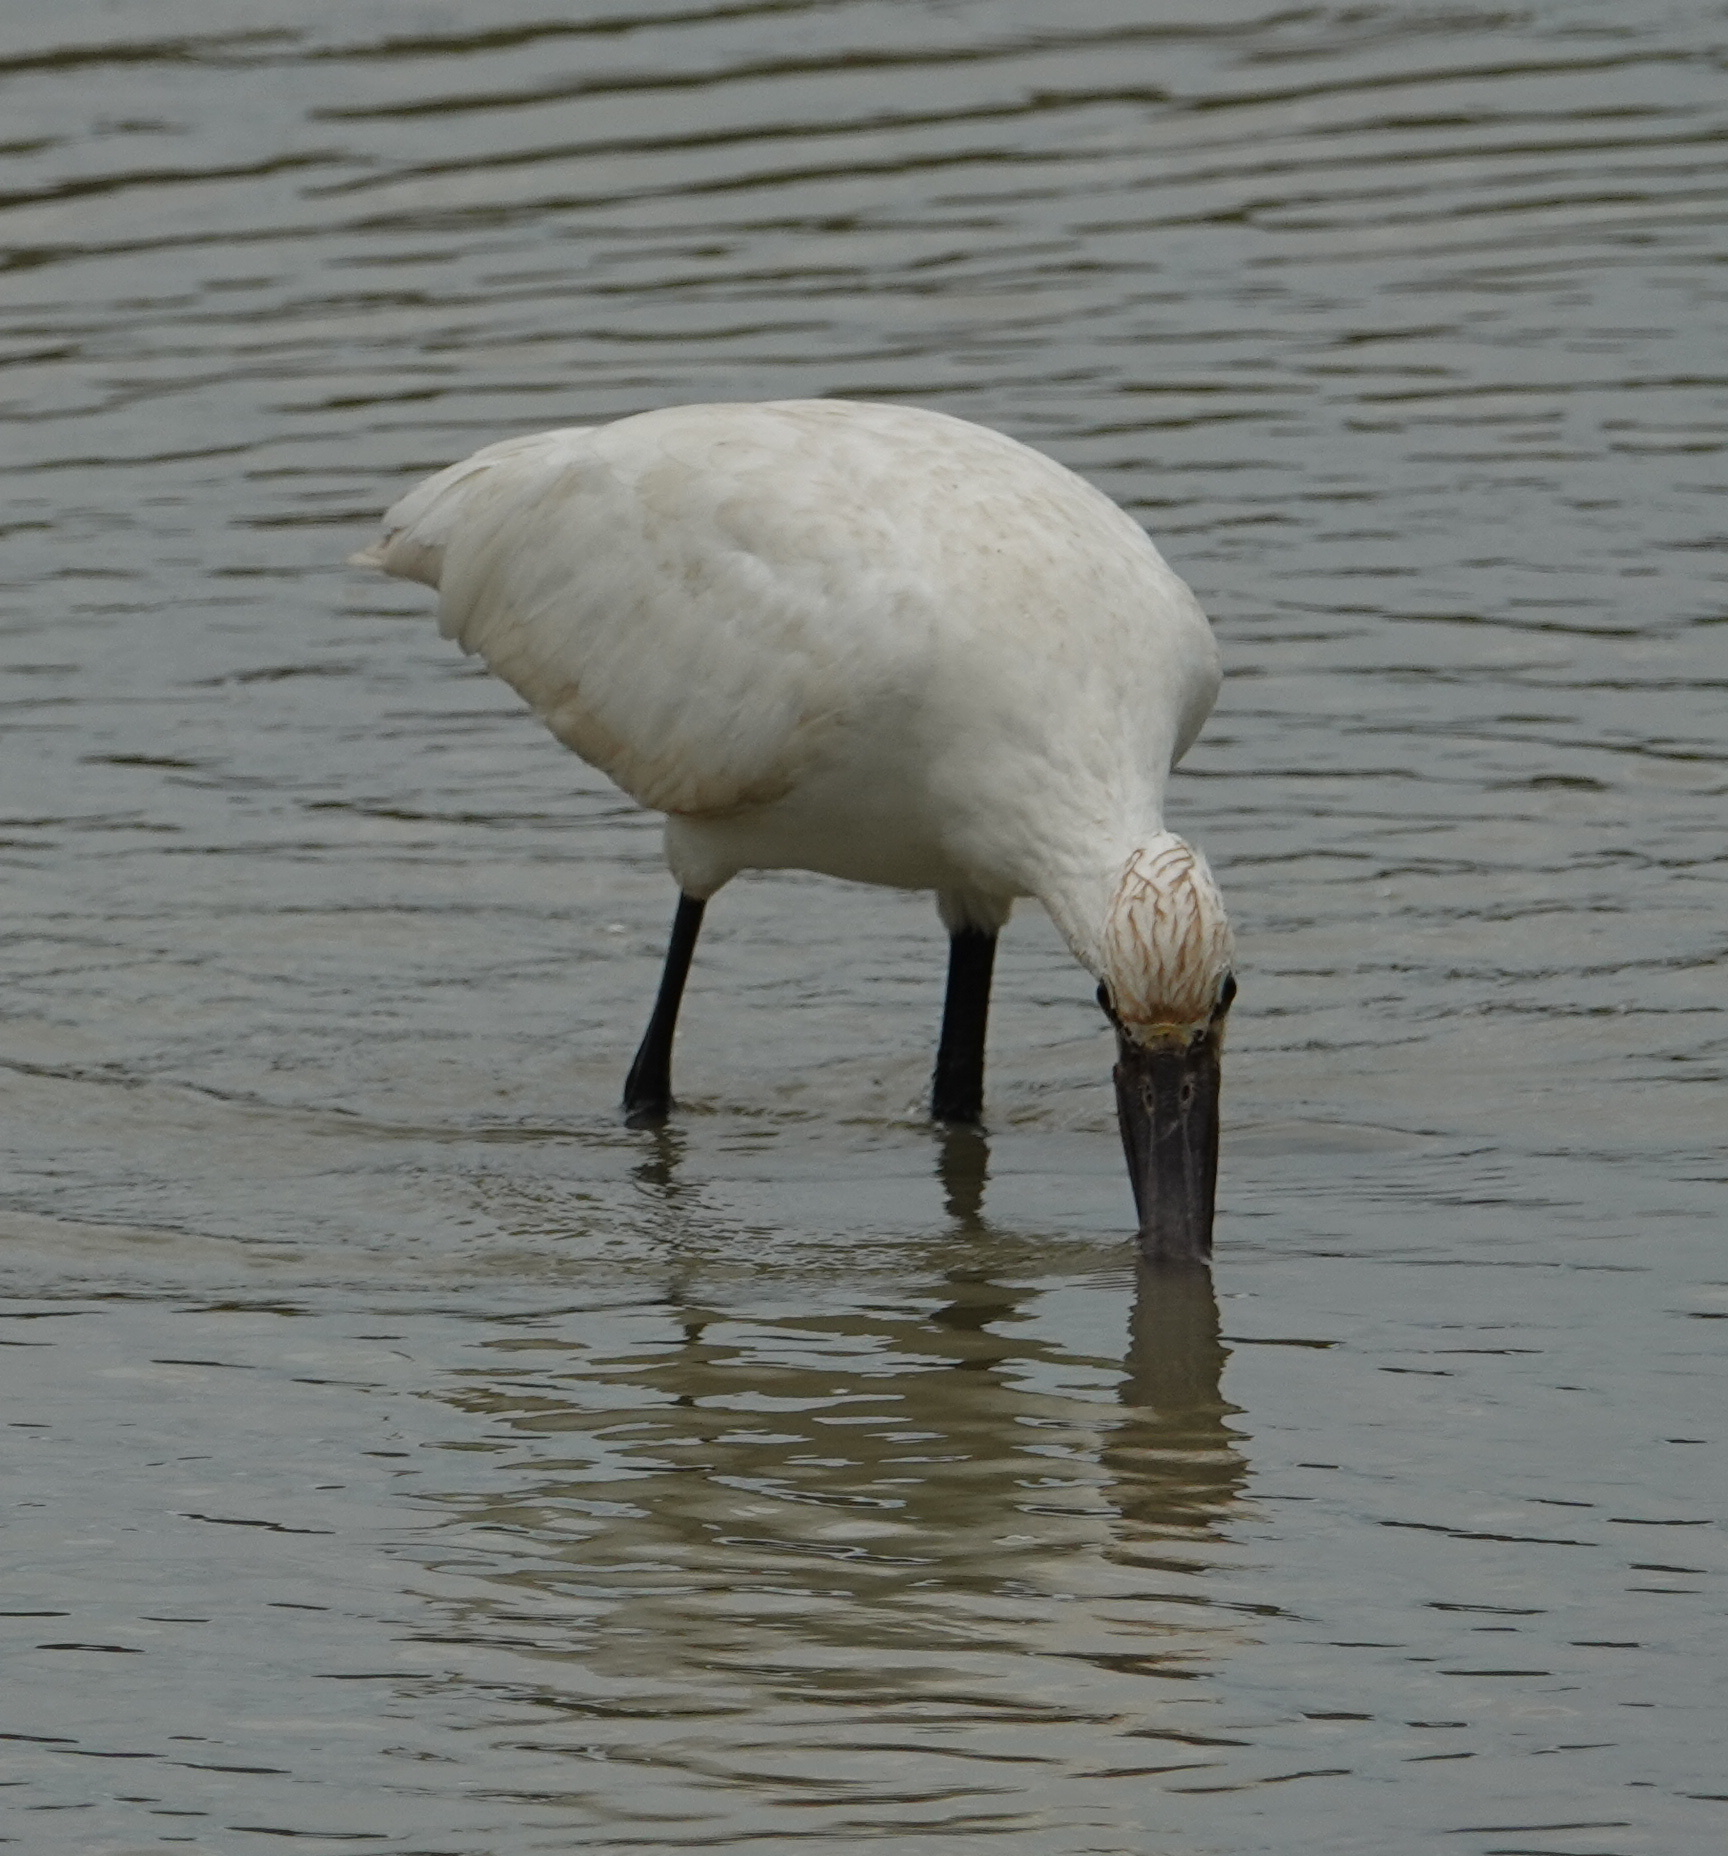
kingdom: Animalia
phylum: Chordata
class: Aves
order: Pelecaniformes
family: Threskiornithidae
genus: Platalea
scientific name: Platalea leucorodia
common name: Eurasian spoonbill
